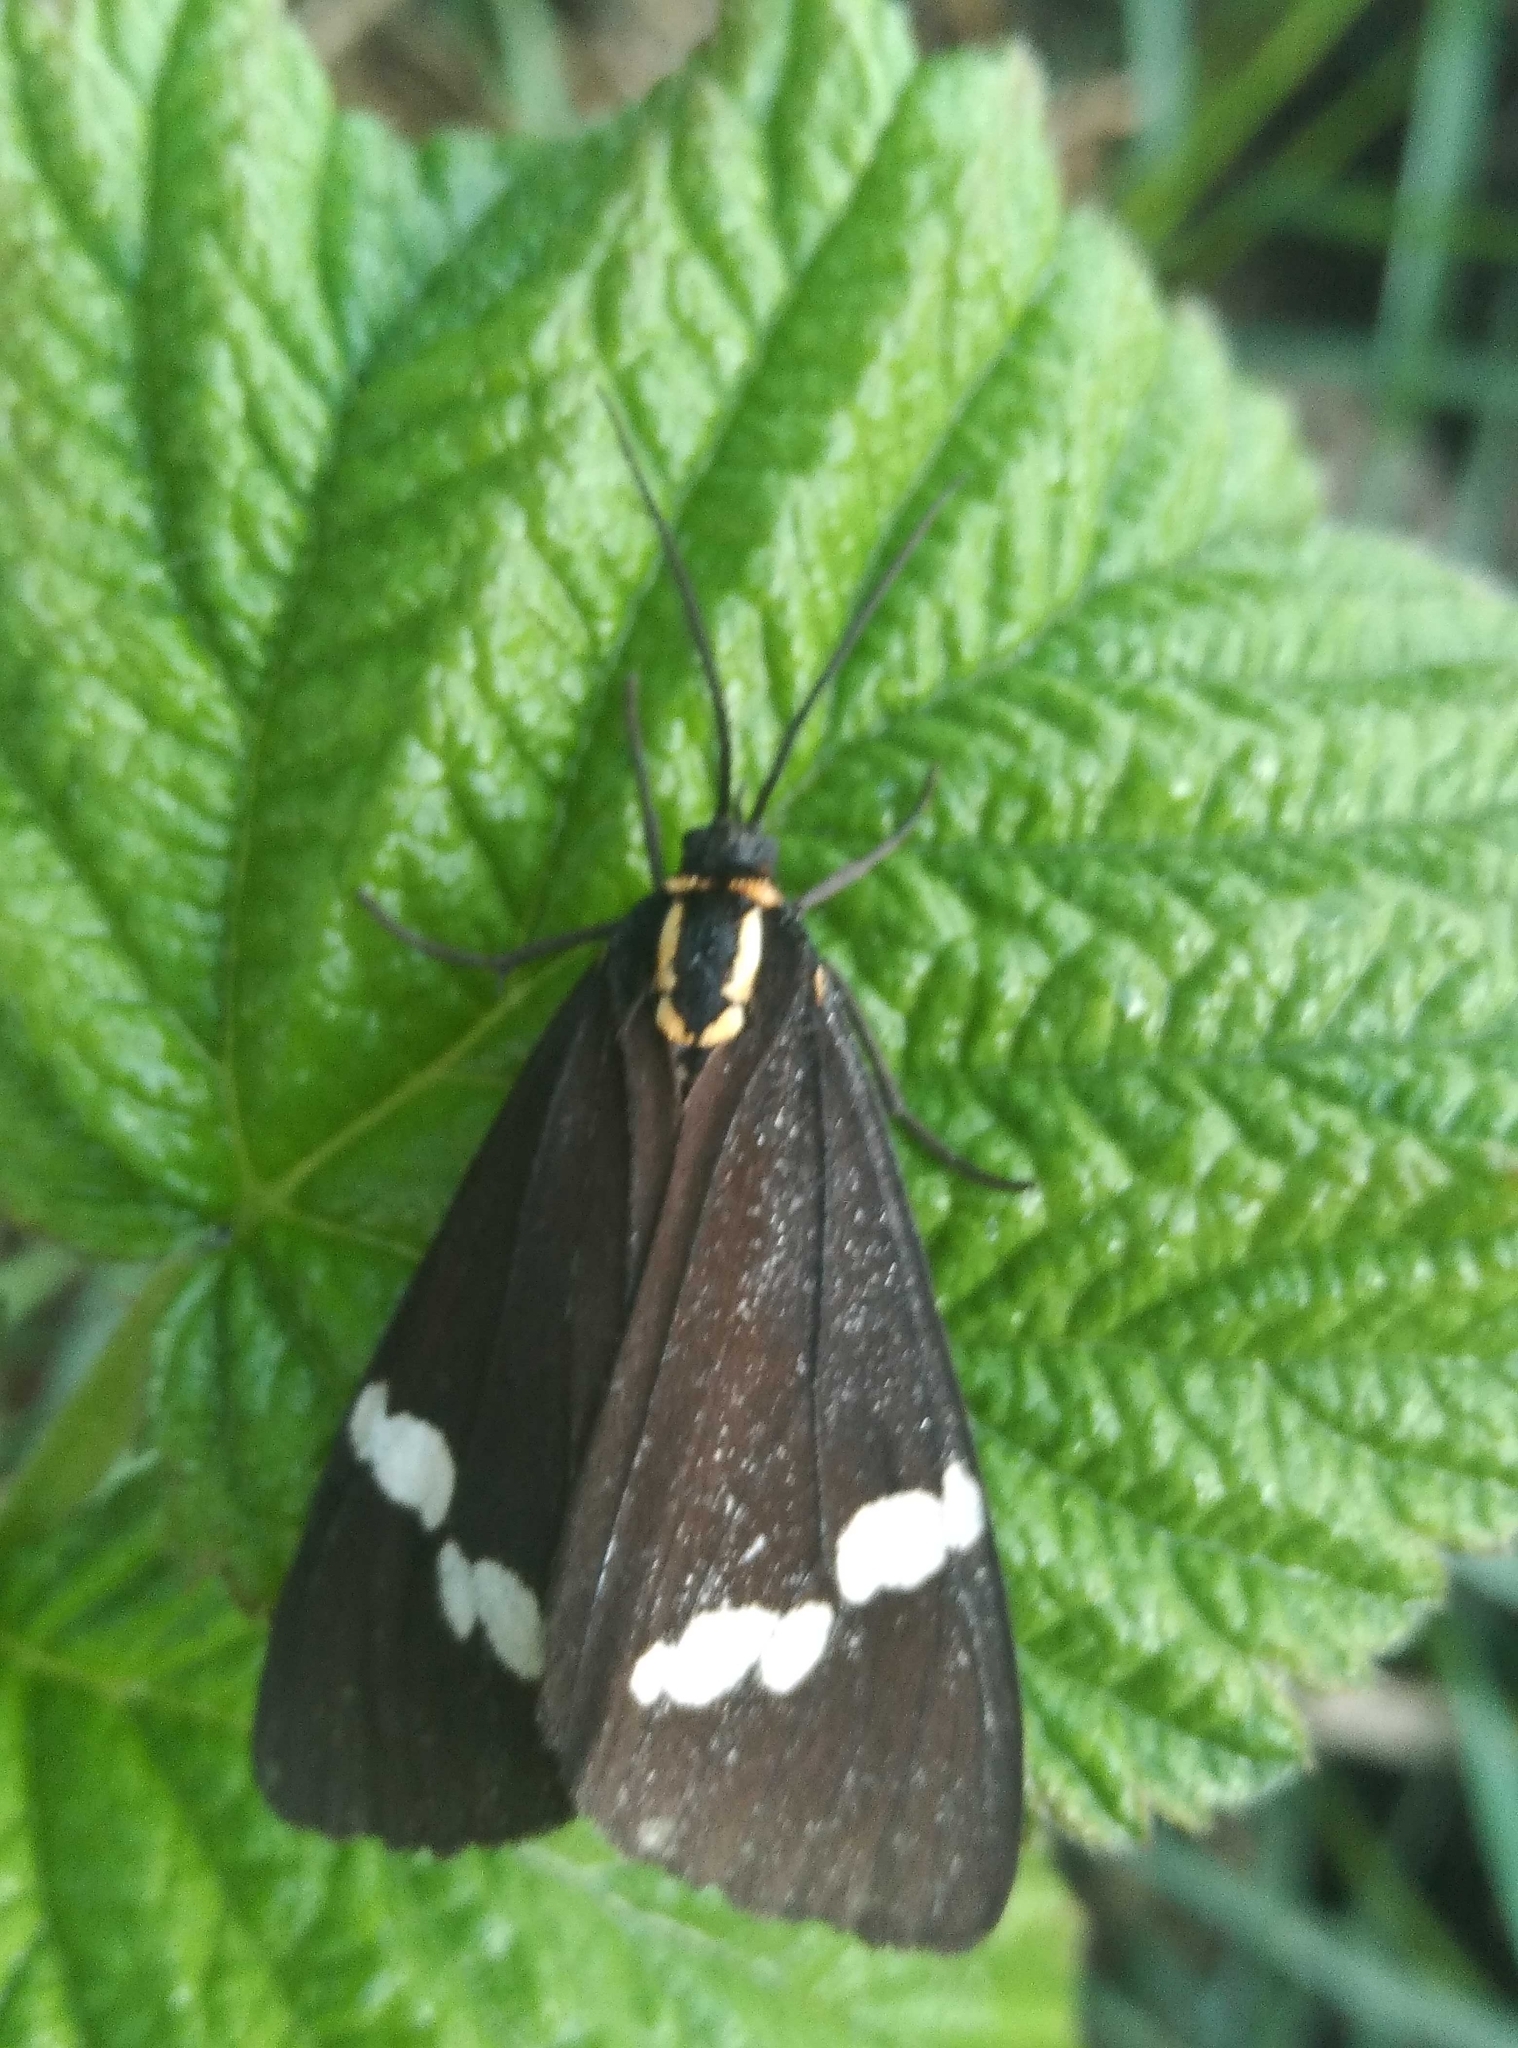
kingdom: Animalia
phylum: Arthropoda
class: Insecta
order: Lepidoptera
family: Erebidae
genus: Nyctemera
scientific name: Nyctemera annulatum
